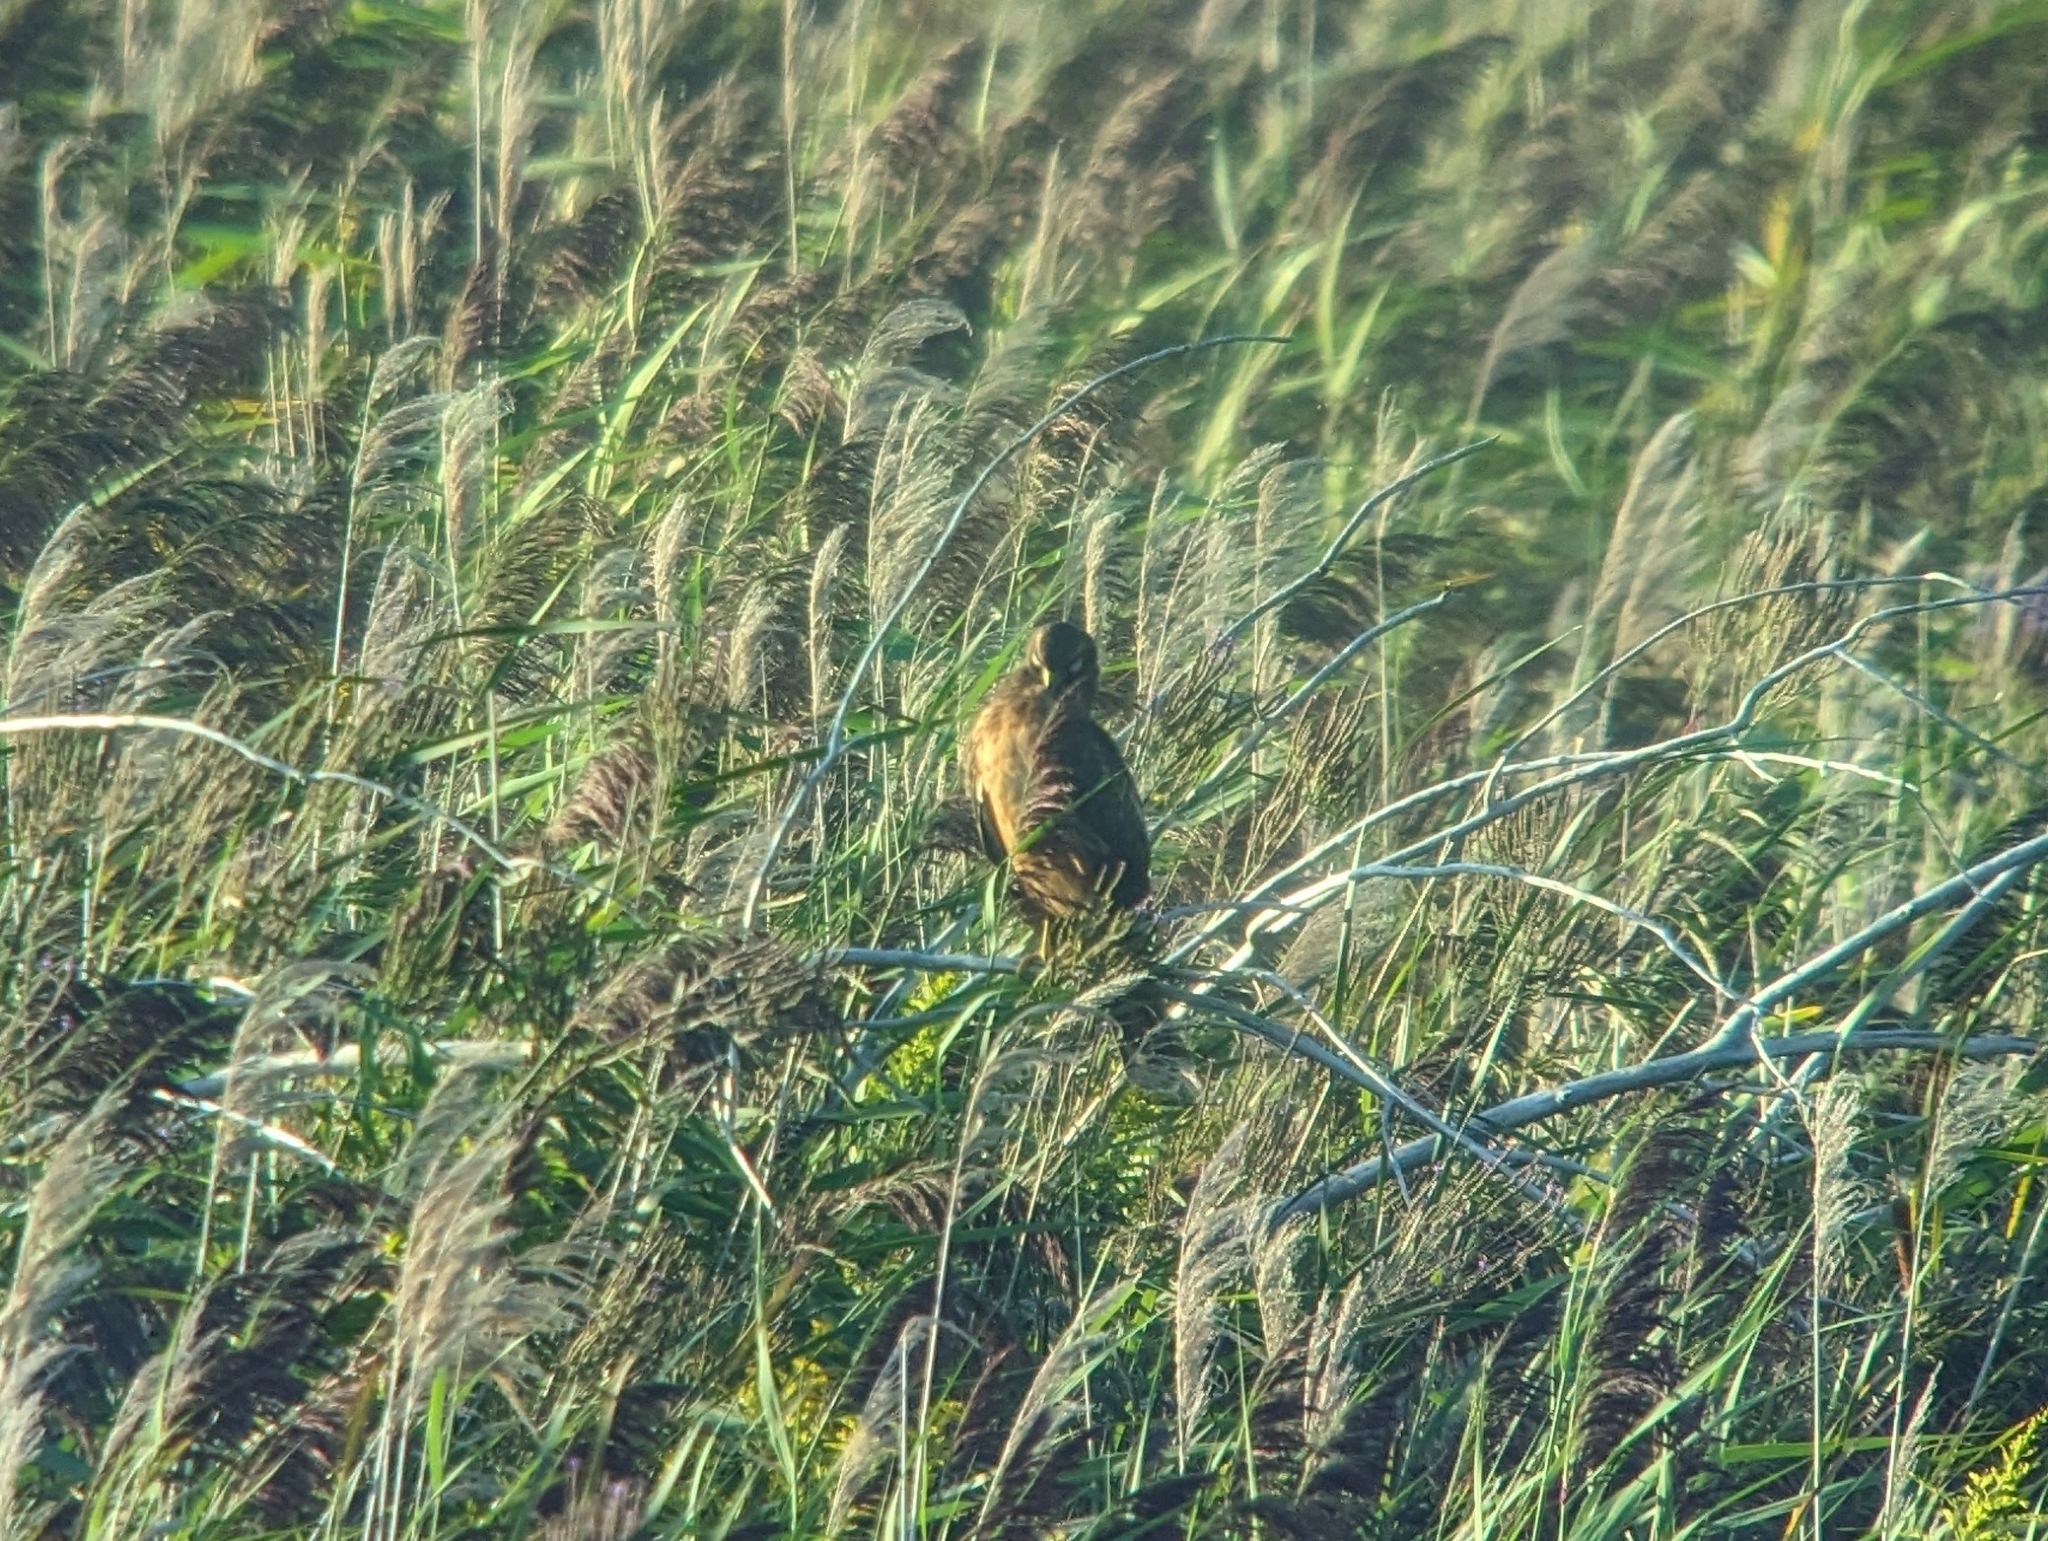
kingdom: Animalia
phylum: Chordata
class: Aves
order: Accipitriformes
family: Accipitridae
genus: Circus
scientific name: Circus cyaneus
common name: Hen harrier
